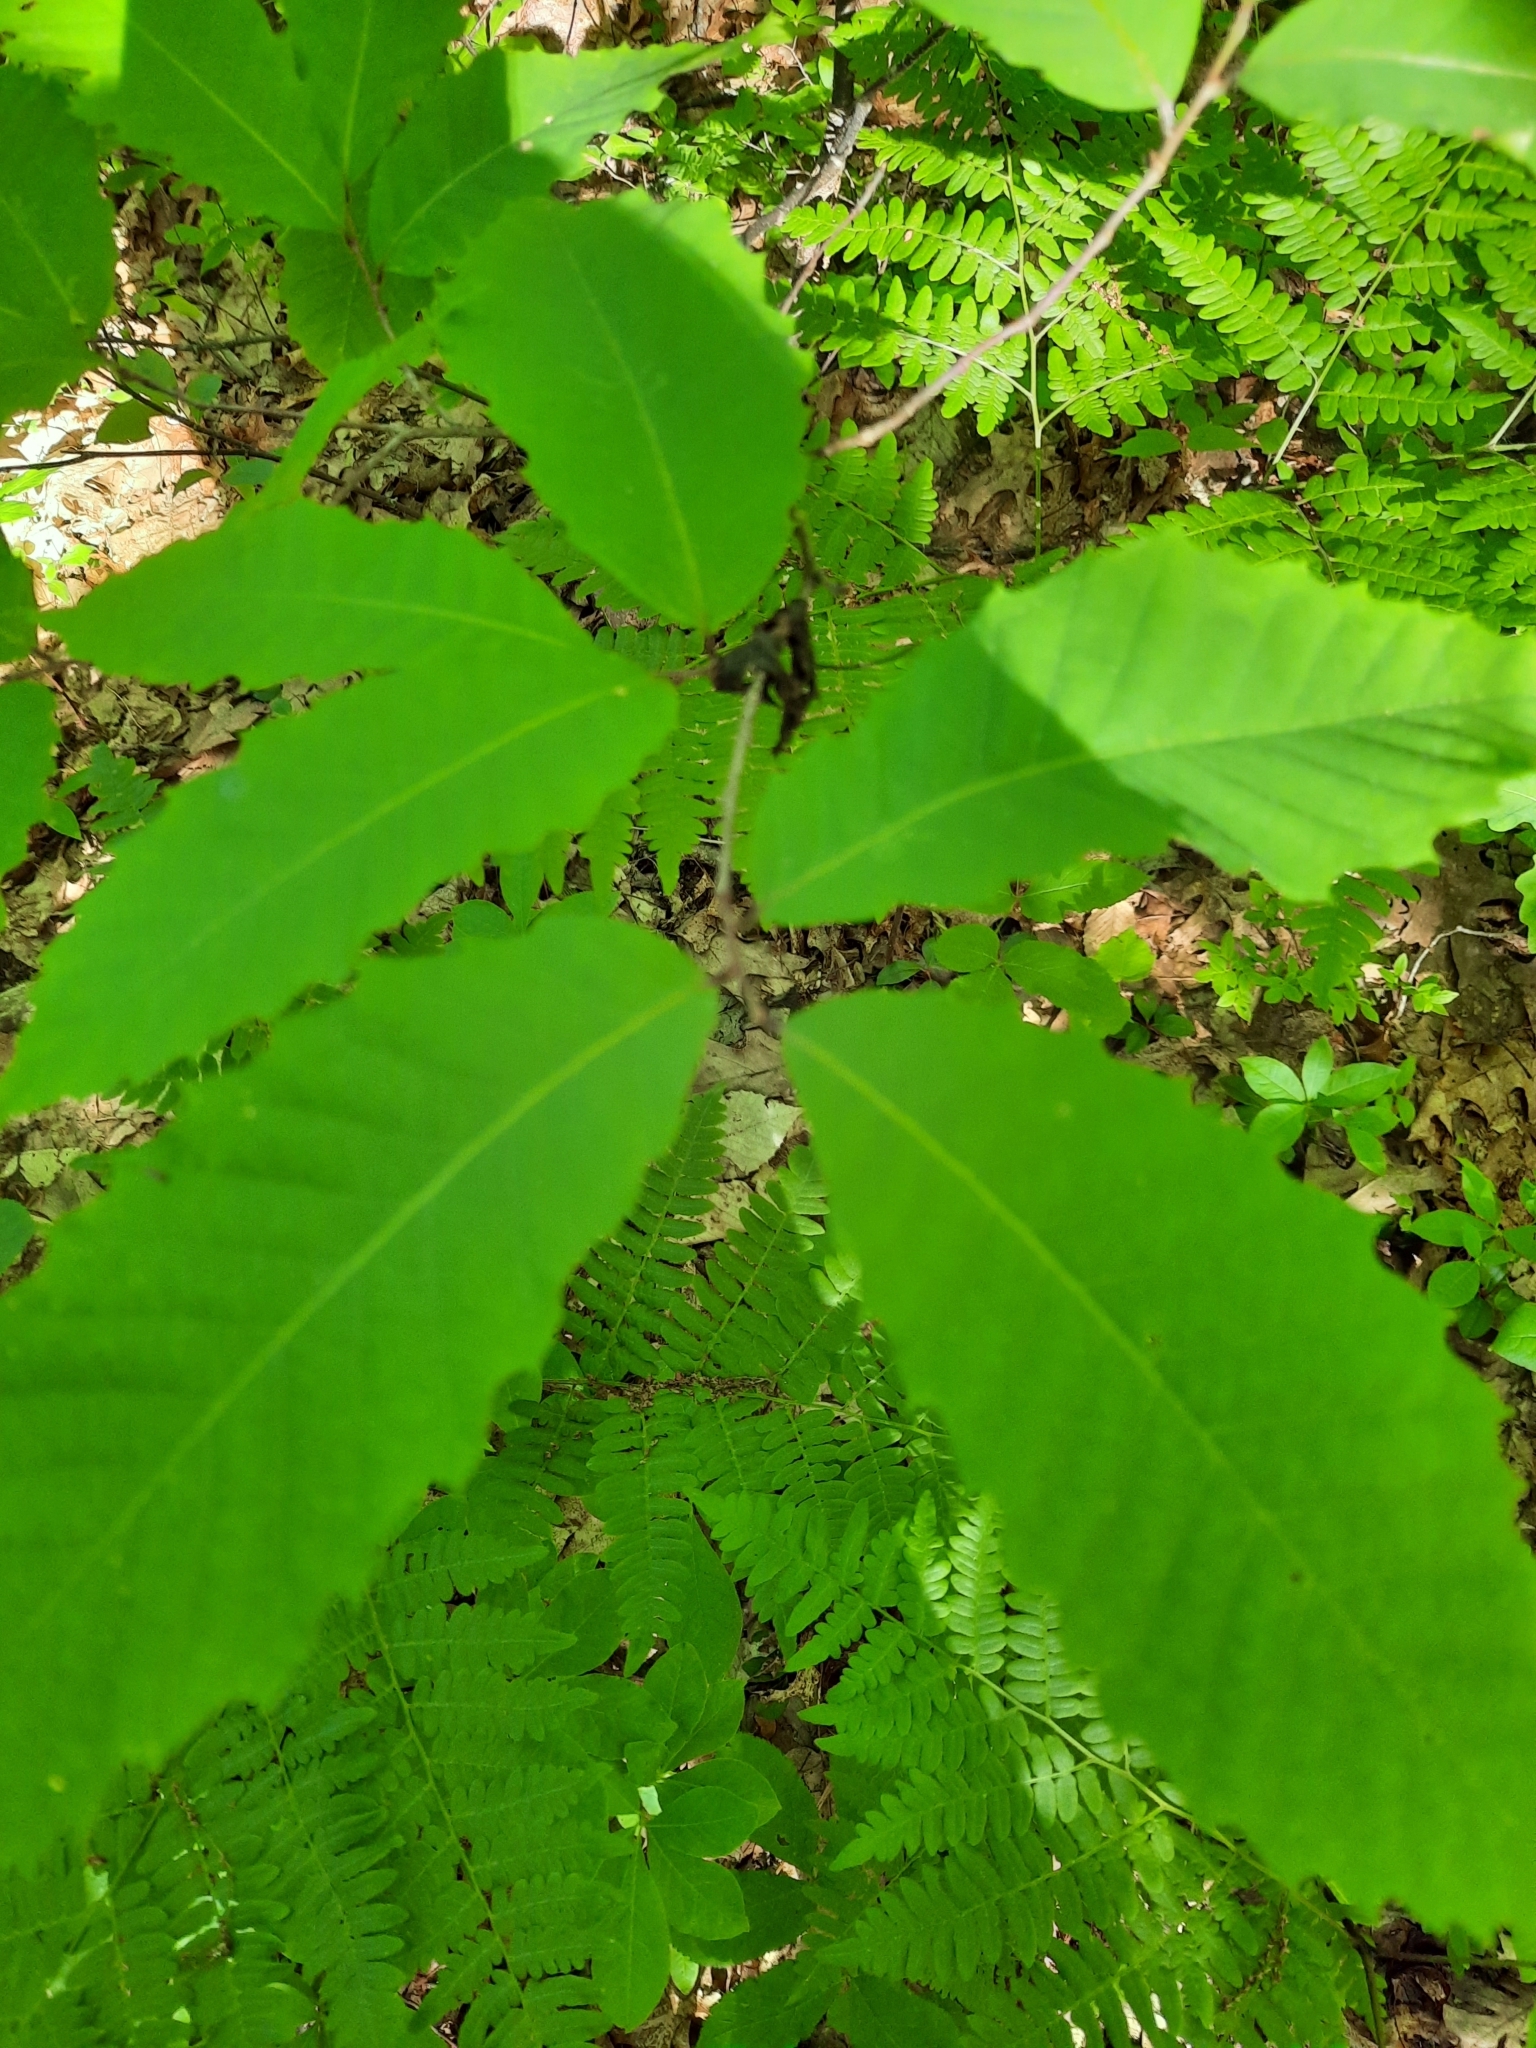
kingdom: Plantae
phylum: Tracheophyta
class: Magnoliopsida
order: Fagales
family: Fagaceae
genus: Castanea
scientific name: Castanea dentata
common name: American chestnut
